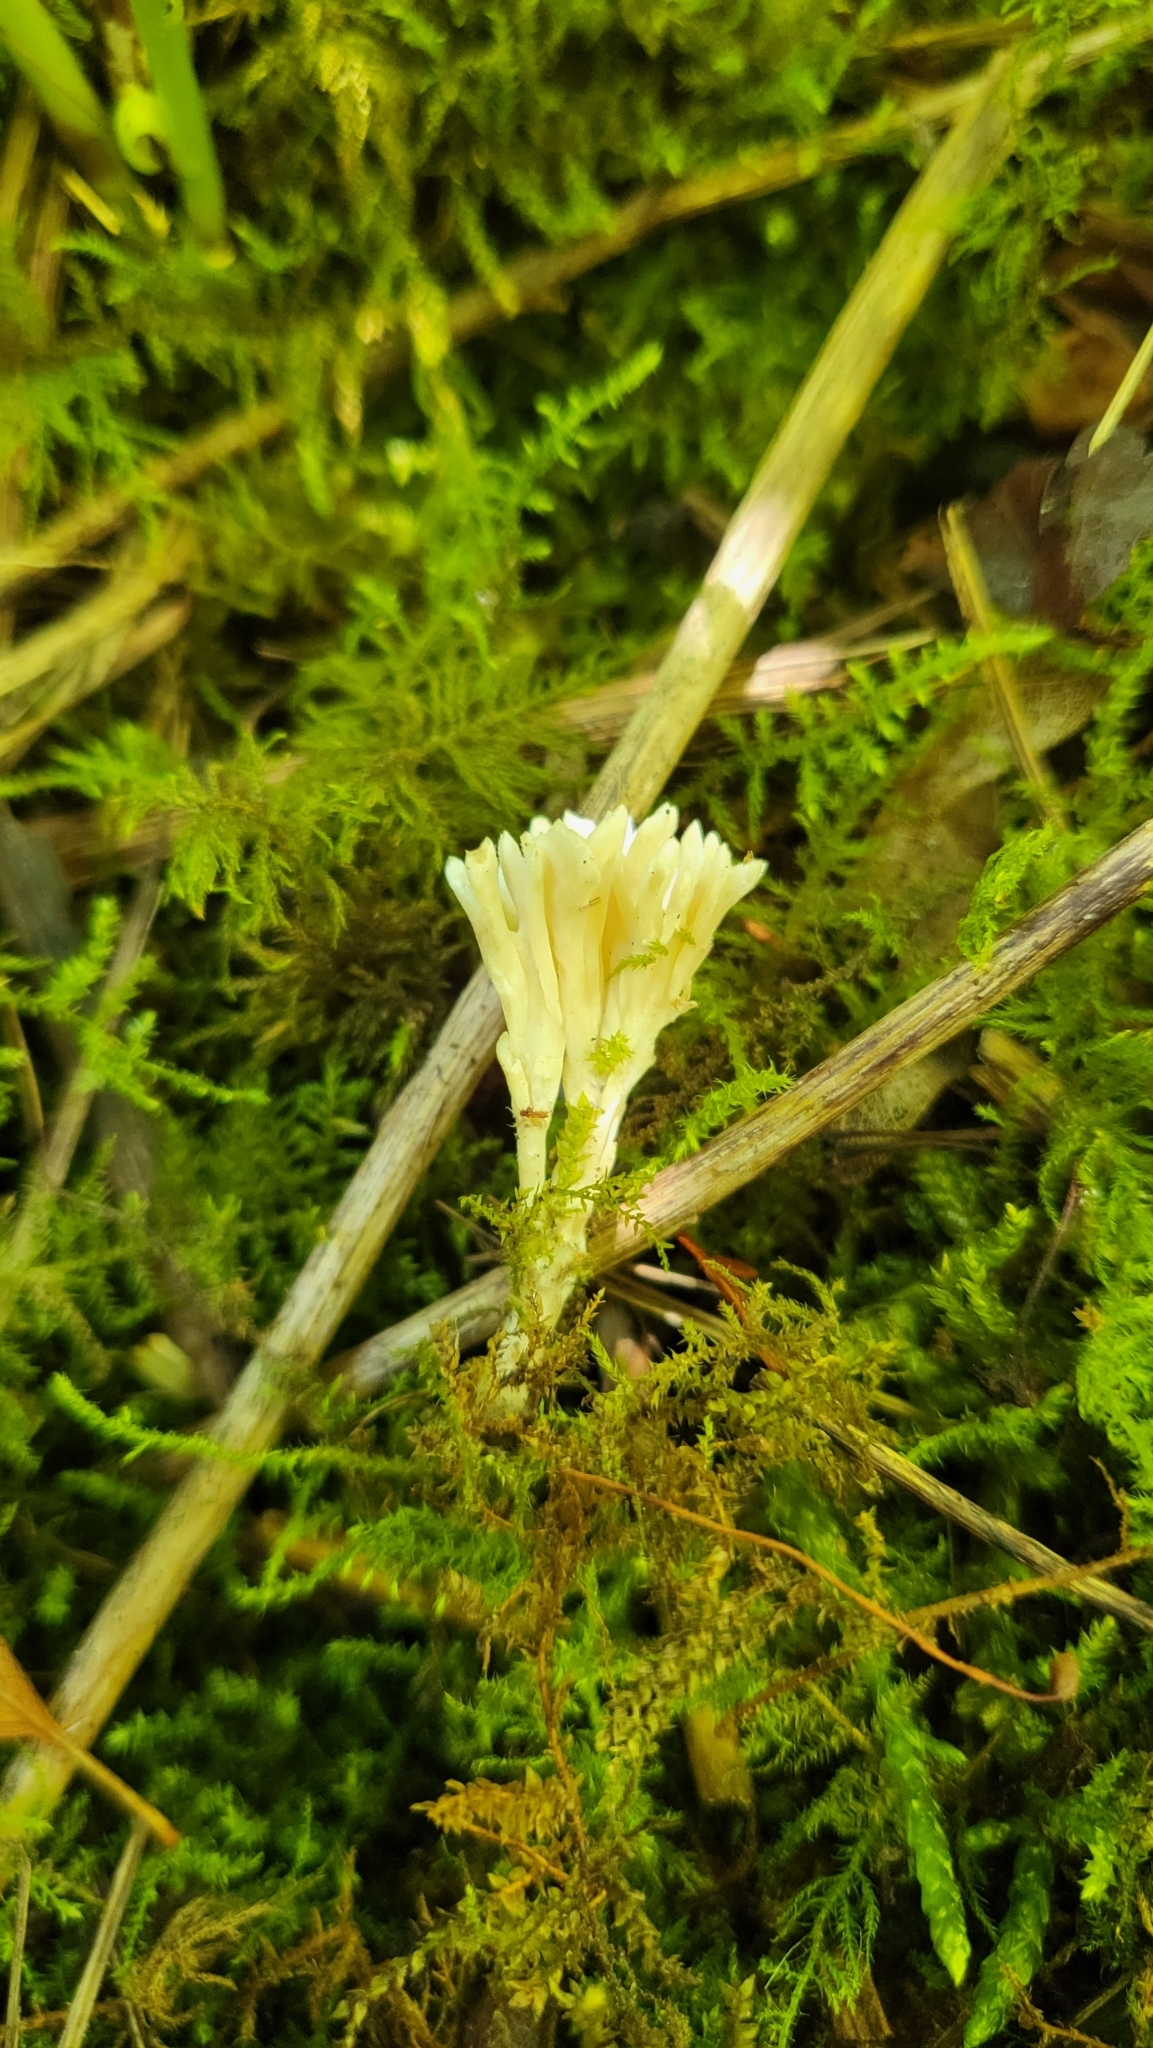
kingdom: Fungi
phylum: Basidiomycota
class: Agaricomycetes
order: Tremellodendropsidales
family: Tremellodendropsidaceae
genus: Tremellodendropsis
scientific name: Tremellodendropsis tuberosa
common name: Ashen coral
